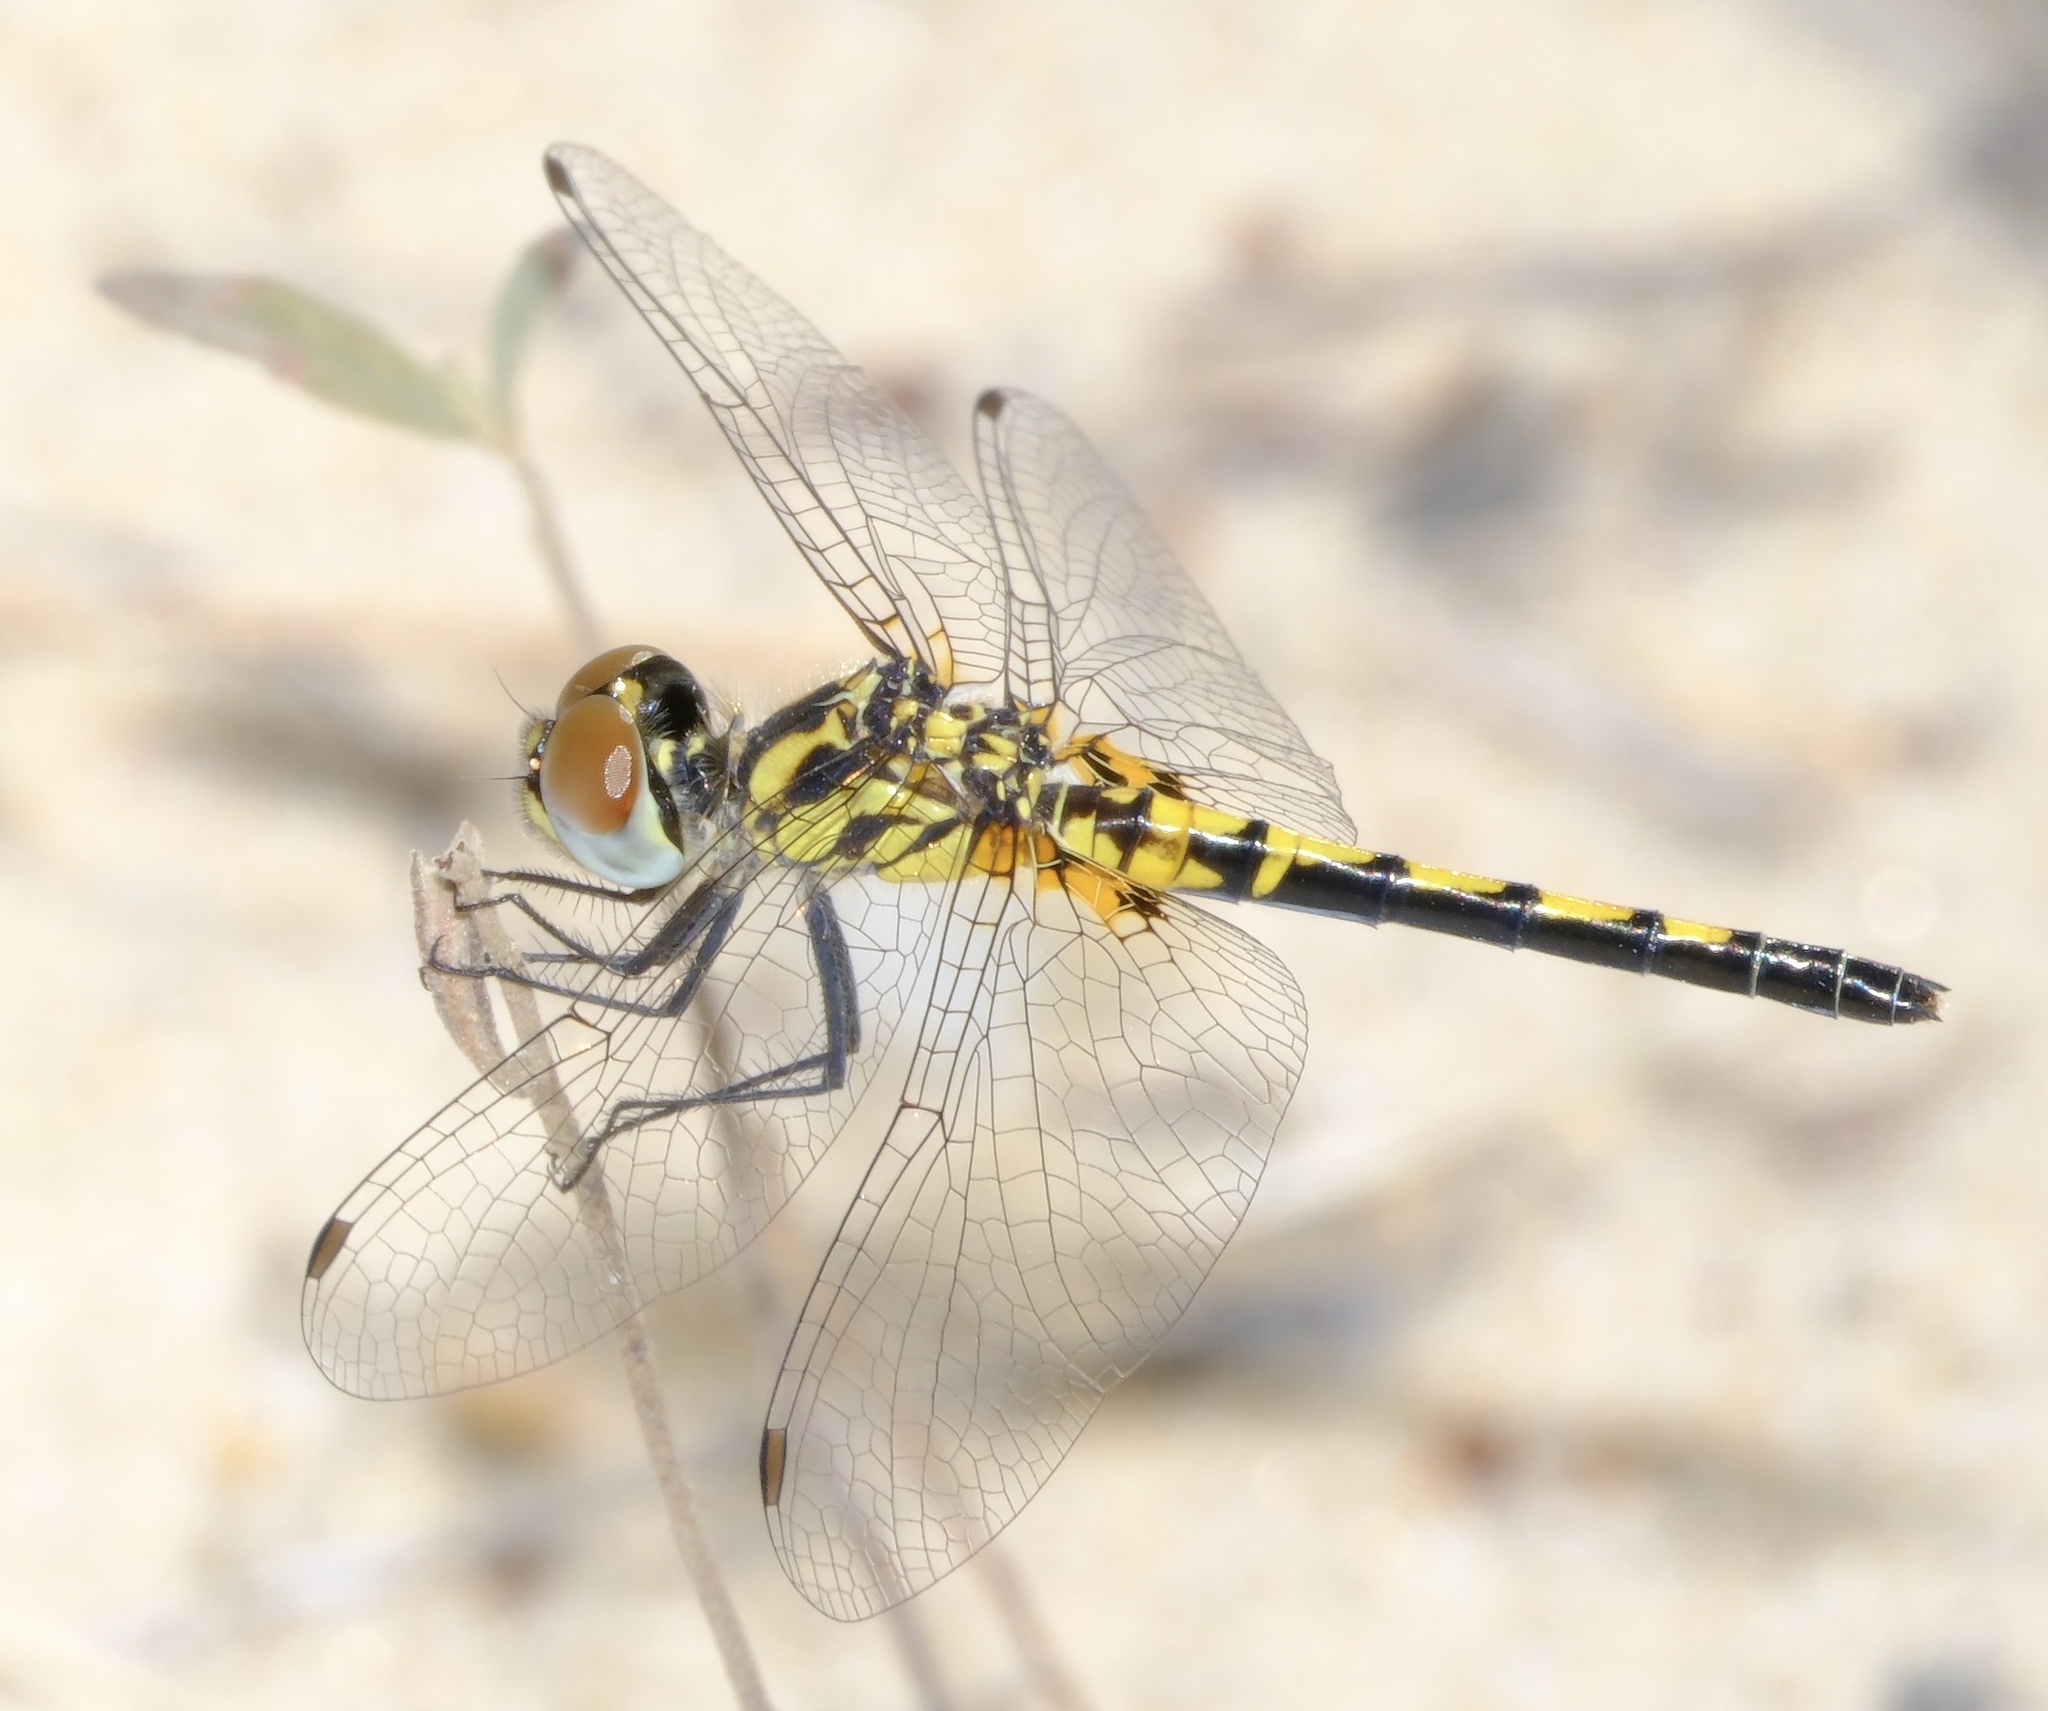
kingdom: Animalia
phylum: Arthropoda
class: Insecta
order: Odonata
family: Libellulidae
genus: Celithemis
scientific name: Celithemis ornata
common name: Ornate pennant
